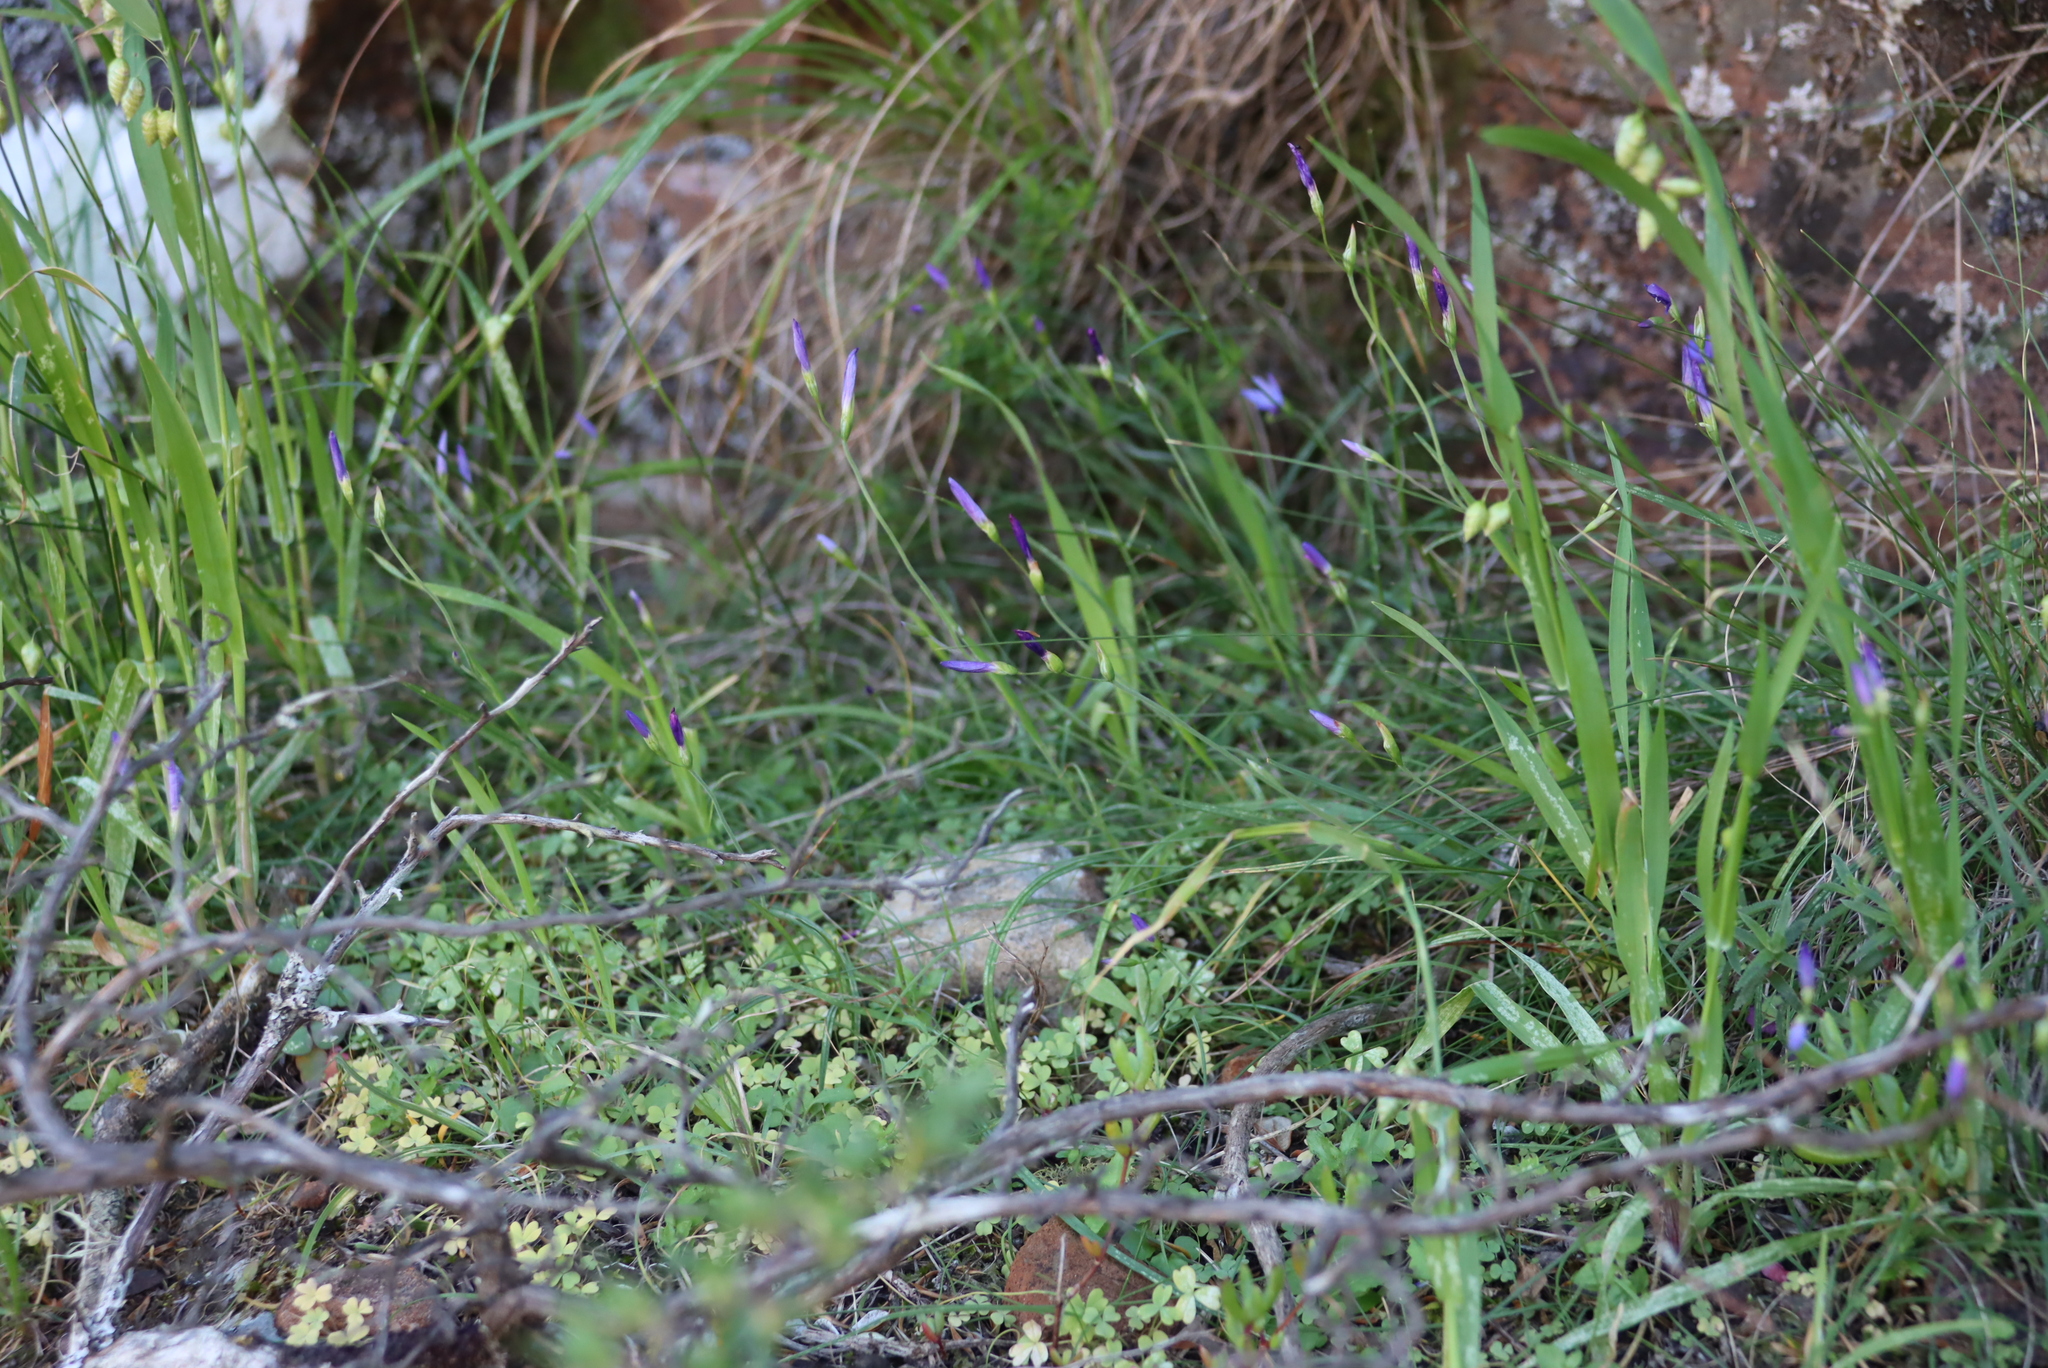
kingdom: Plantae
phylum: Tracheophyta
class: Liliopsida
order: Asparagales
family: Iridaceae
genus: Geissorhiza
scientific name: Geissorhiza aspera
